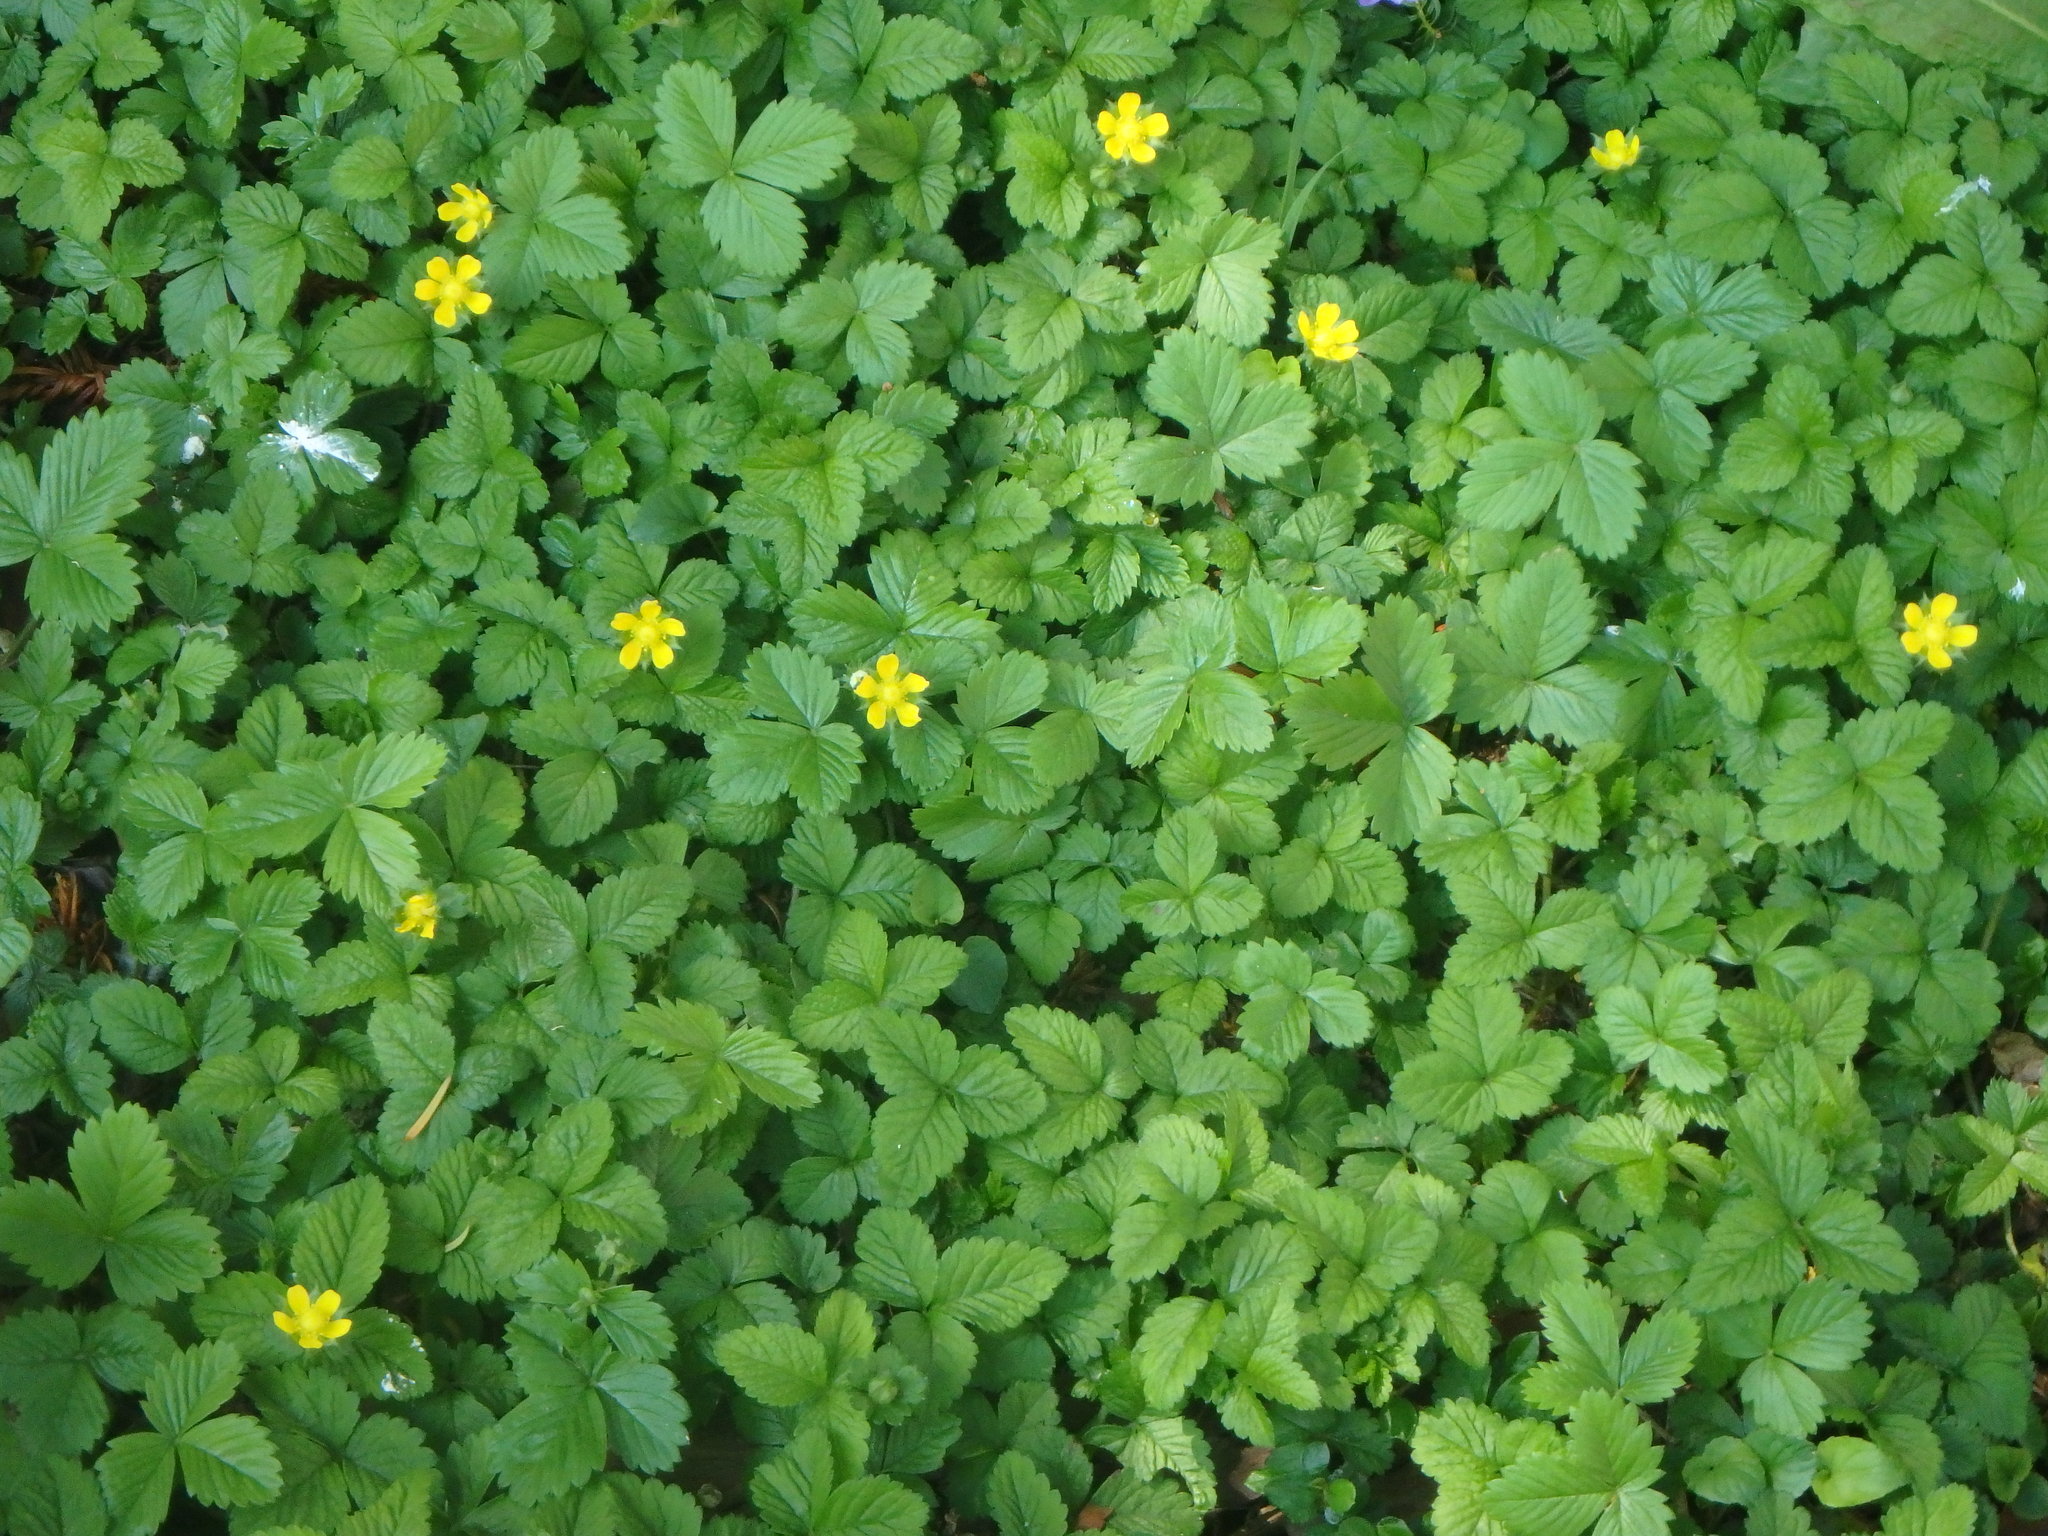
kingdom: Plantae
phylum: Tracheophyta
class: Magnoliopsida
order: Rosales
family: Rosaceae
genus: Potentilla
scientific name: Potentilla indica
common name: Yellow-flowered strawberry
